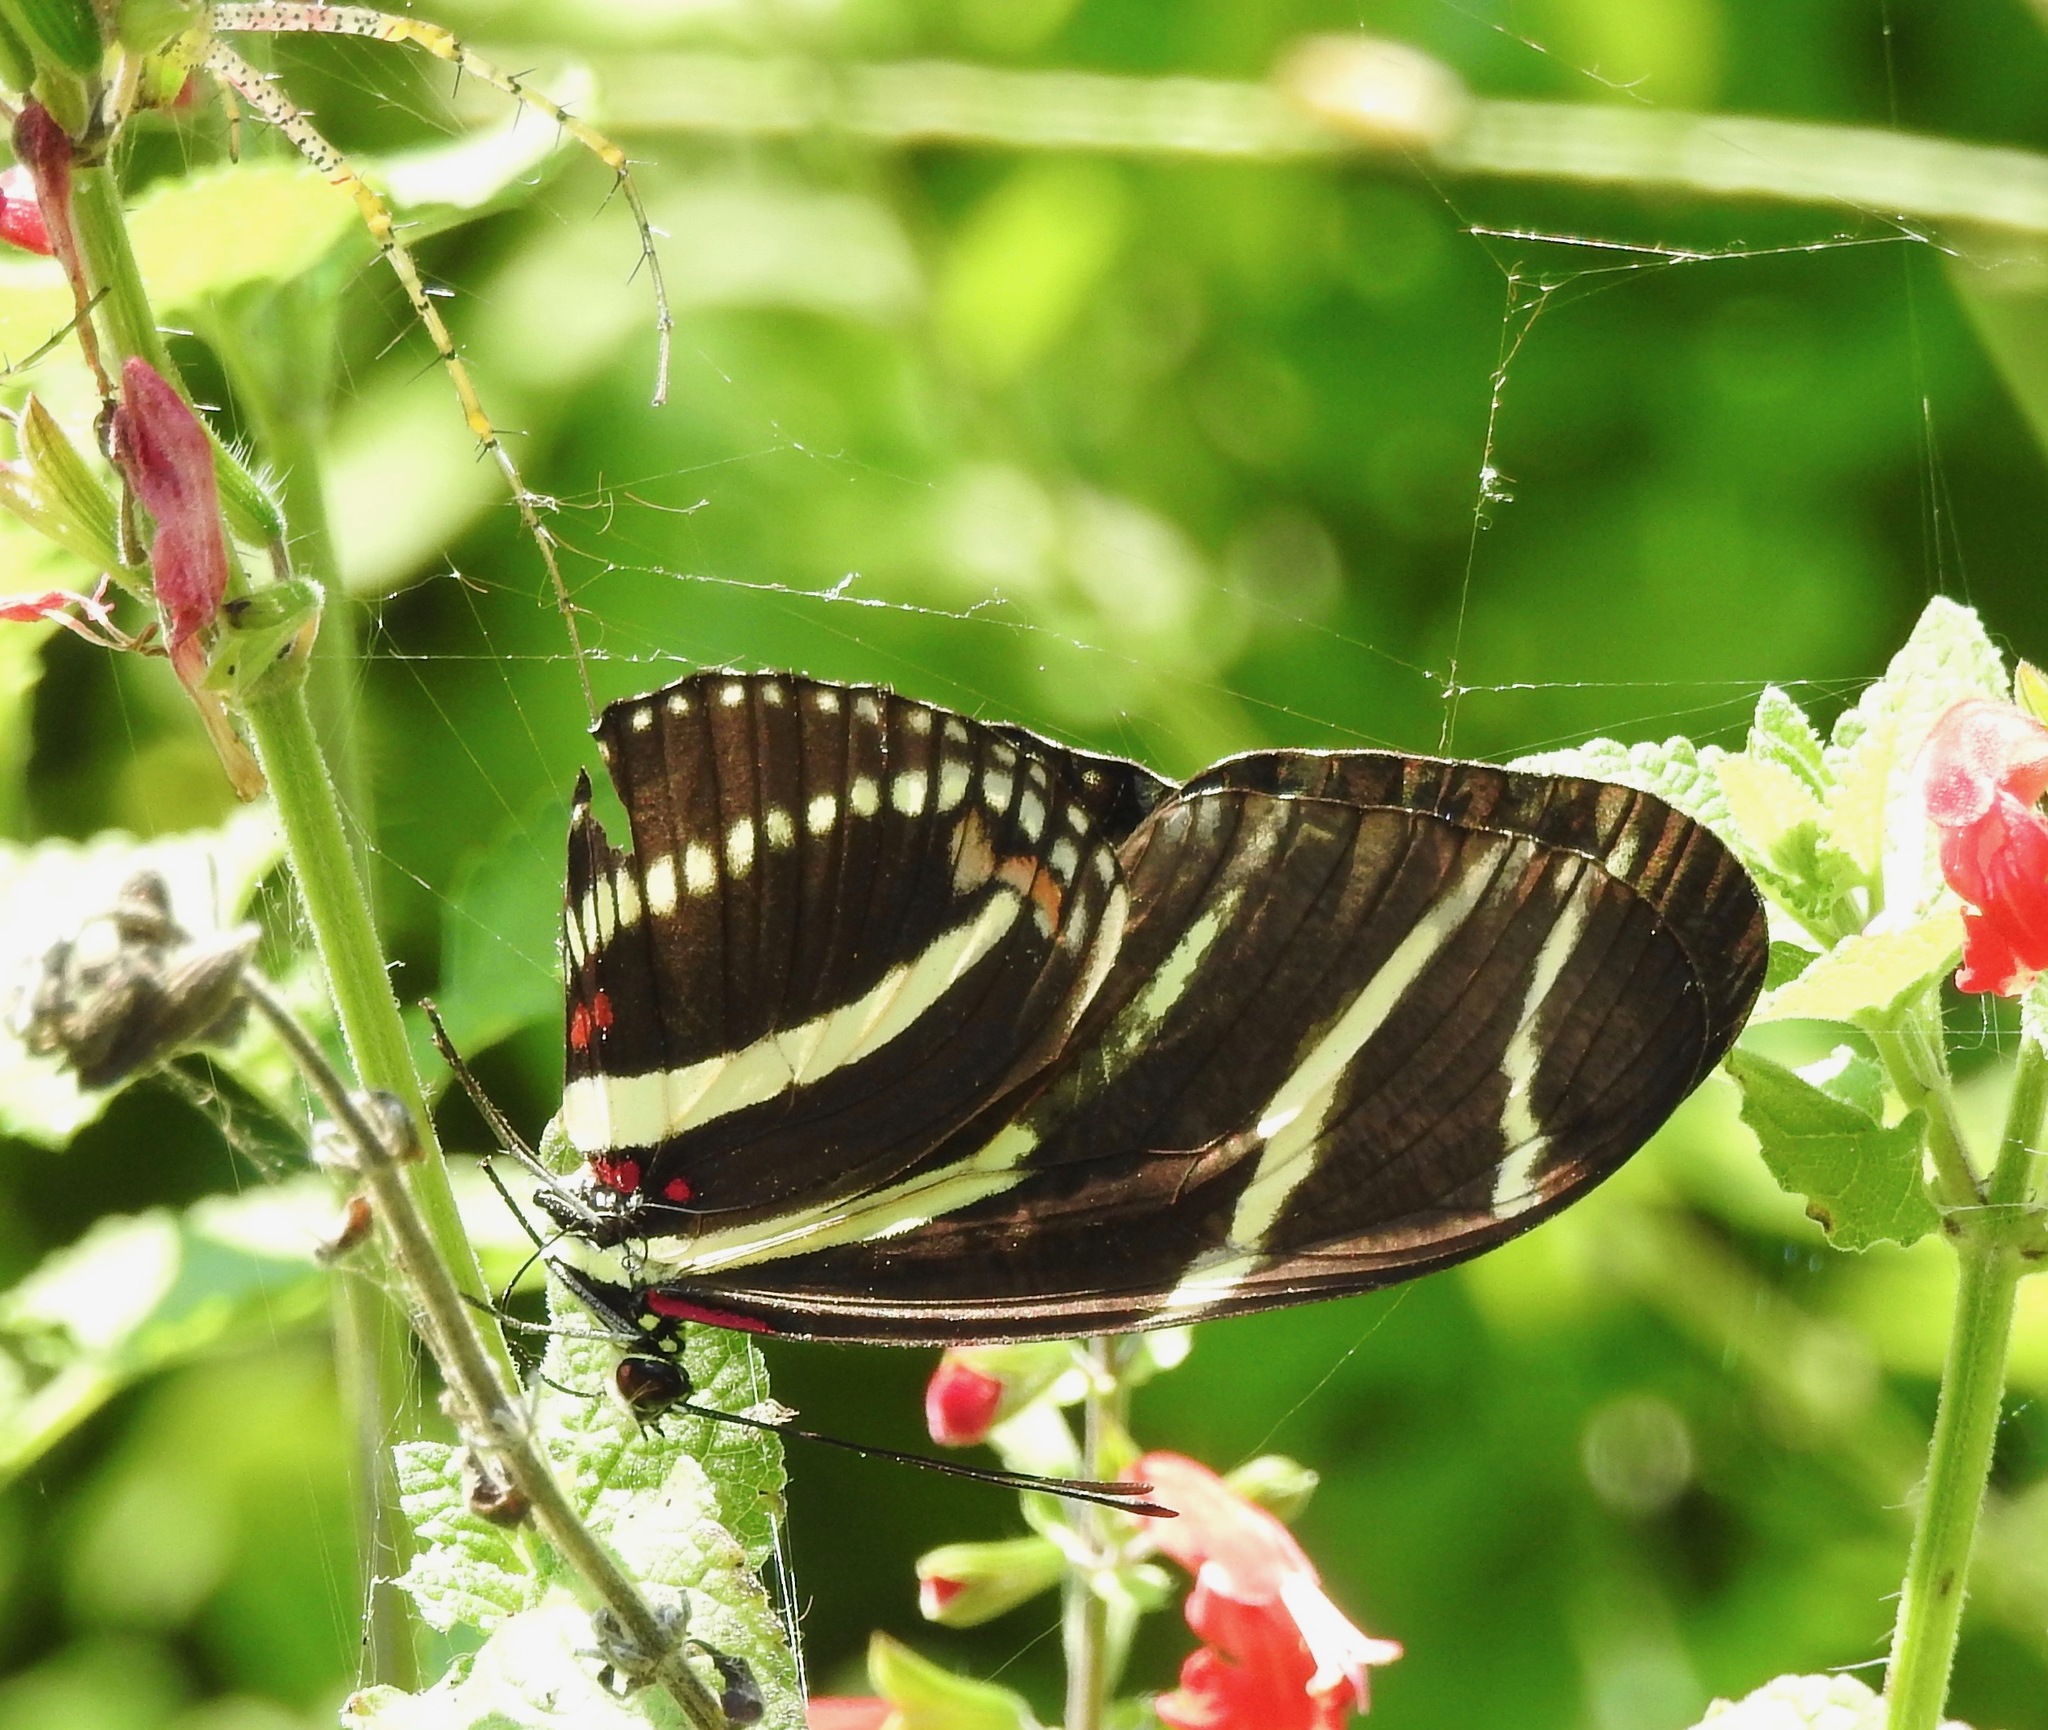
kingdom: Animalia
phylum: Arthropoda
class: Insecta
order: Lepidoptera
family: Nymphalidae
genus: Heliconius
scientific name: Heliconius charithonia
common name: Zebra long wing
